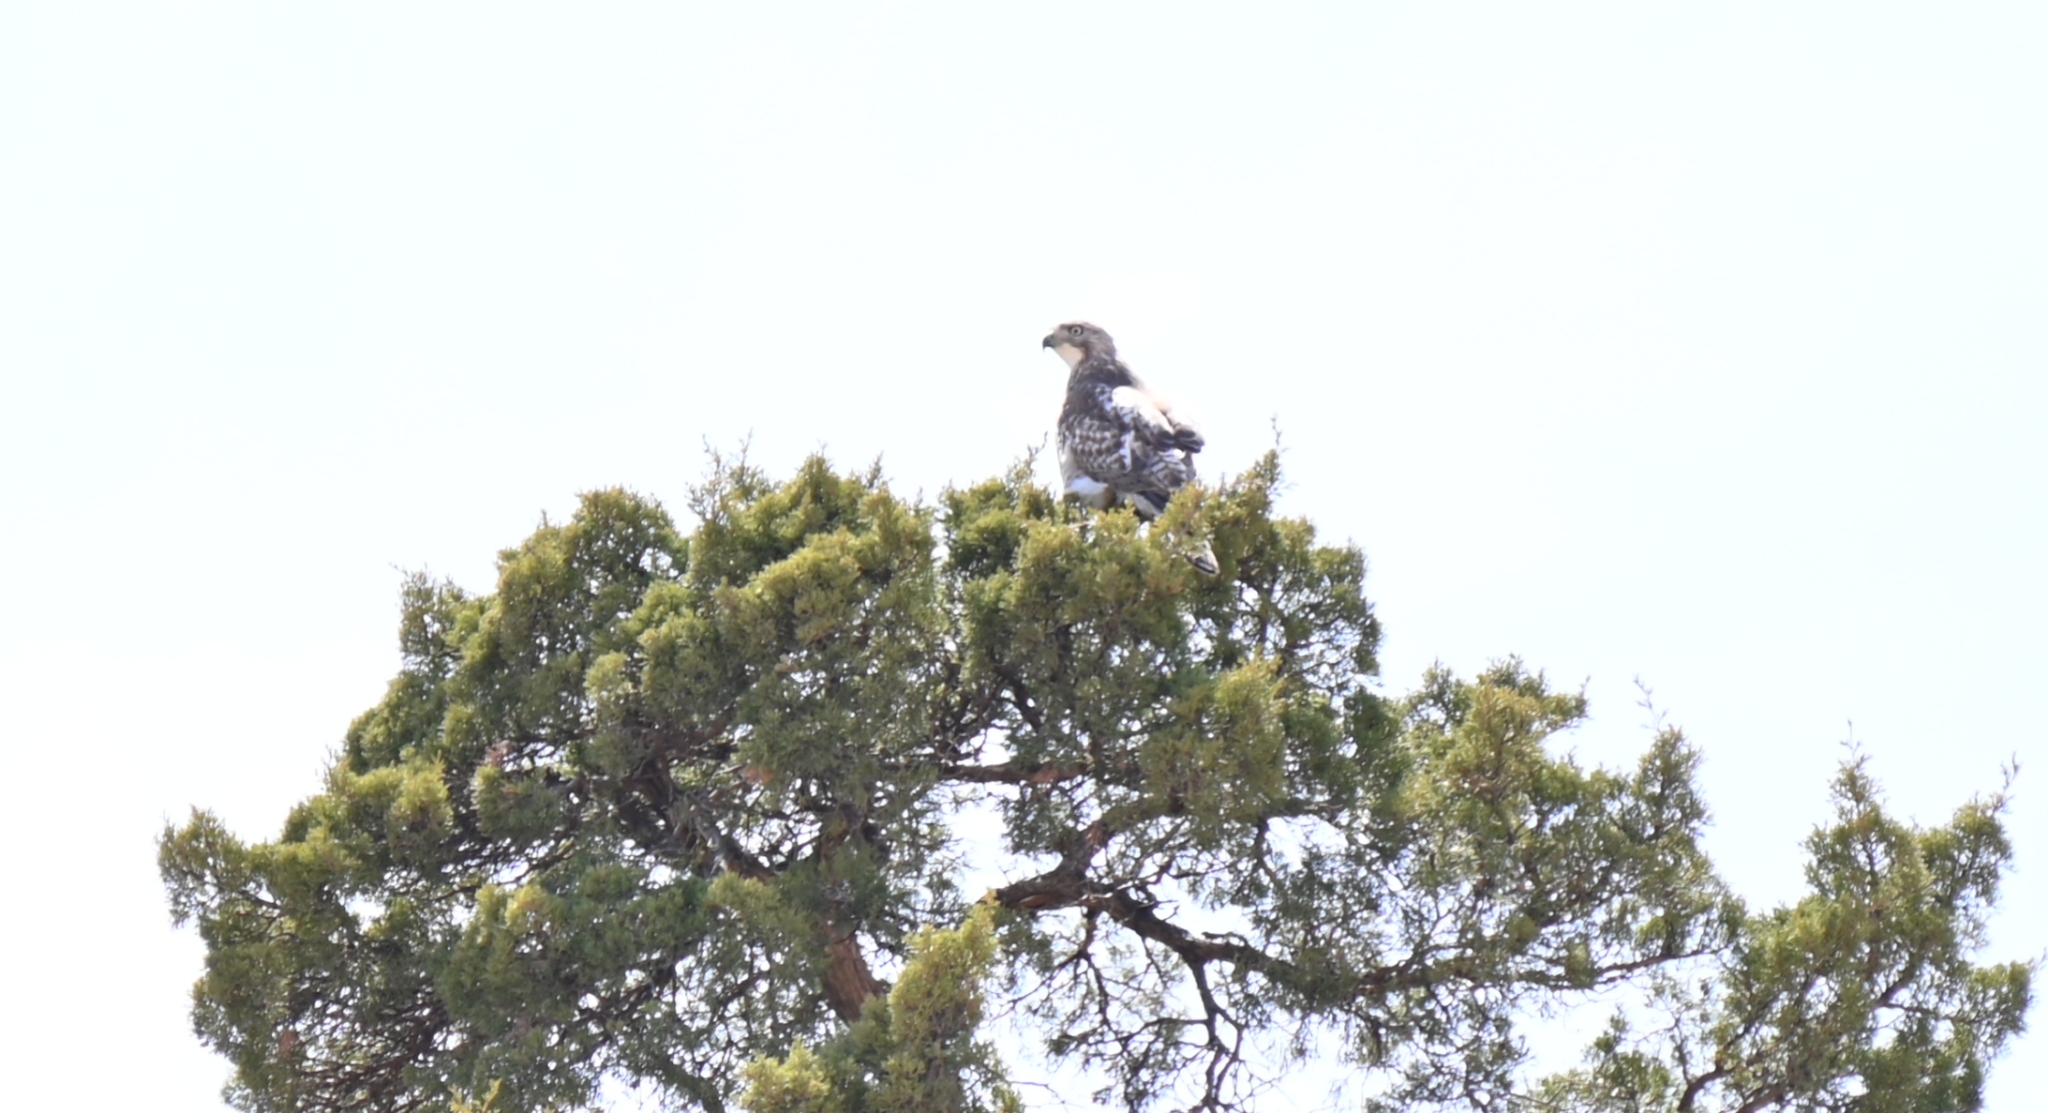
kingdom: Animalia
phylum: Chordata
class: Aves
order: Accipitriformes
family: Accipitridae
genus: Buteo
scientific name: Buteo jamaicensis
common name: Red-tailed hawk
